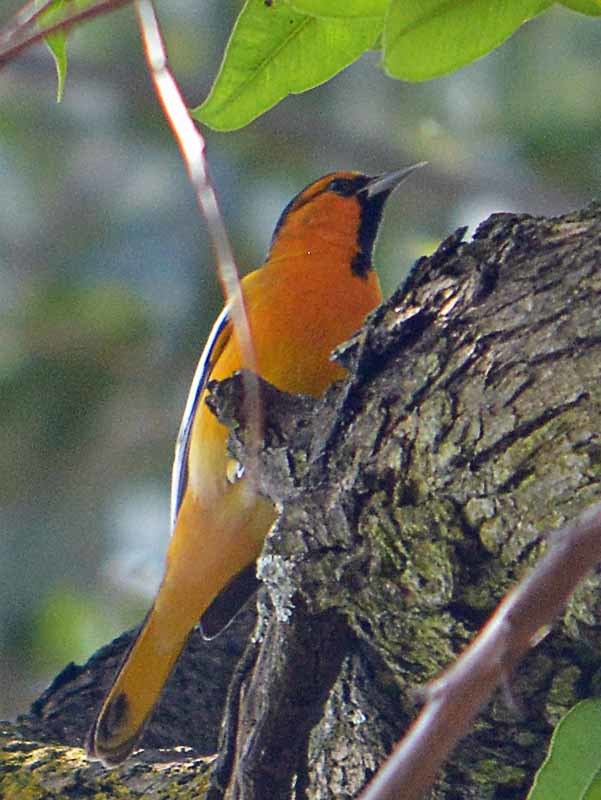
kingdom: Animalia
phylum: Chordata
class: Aves
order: Passeriformes
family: Icteridae
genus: Icterus
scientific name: Icterus bullockii
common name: Bullock's oriole
